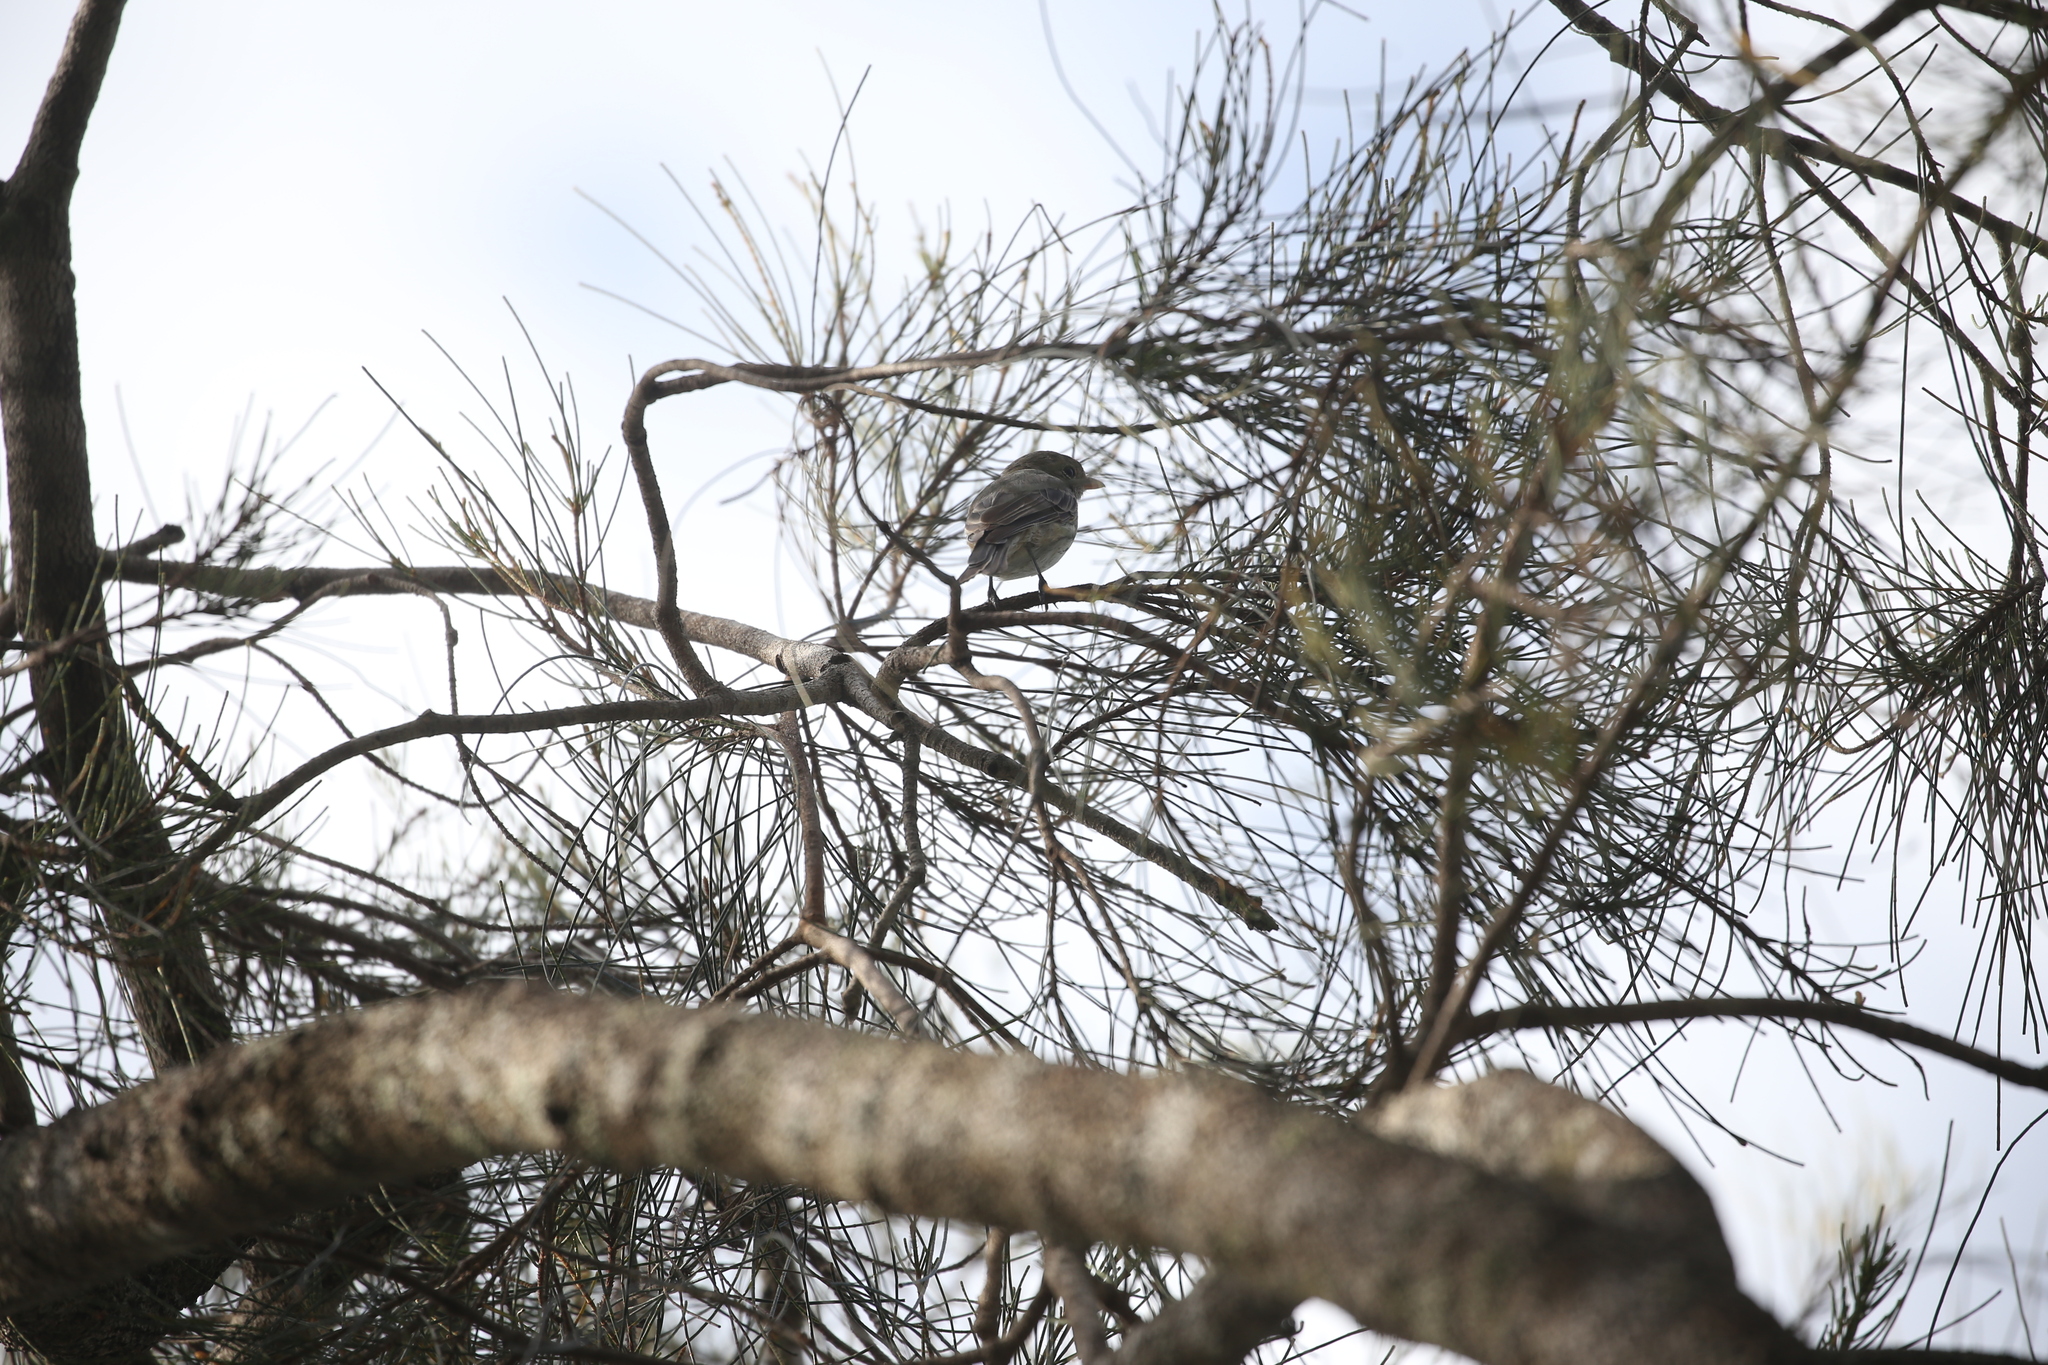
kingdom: Animalia
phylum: Chordata
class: Aves
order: Passeriformes
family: Pachycephalidae
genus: Pachycephala
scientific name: Pachycephala rufiventris
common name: Rufous whistler
